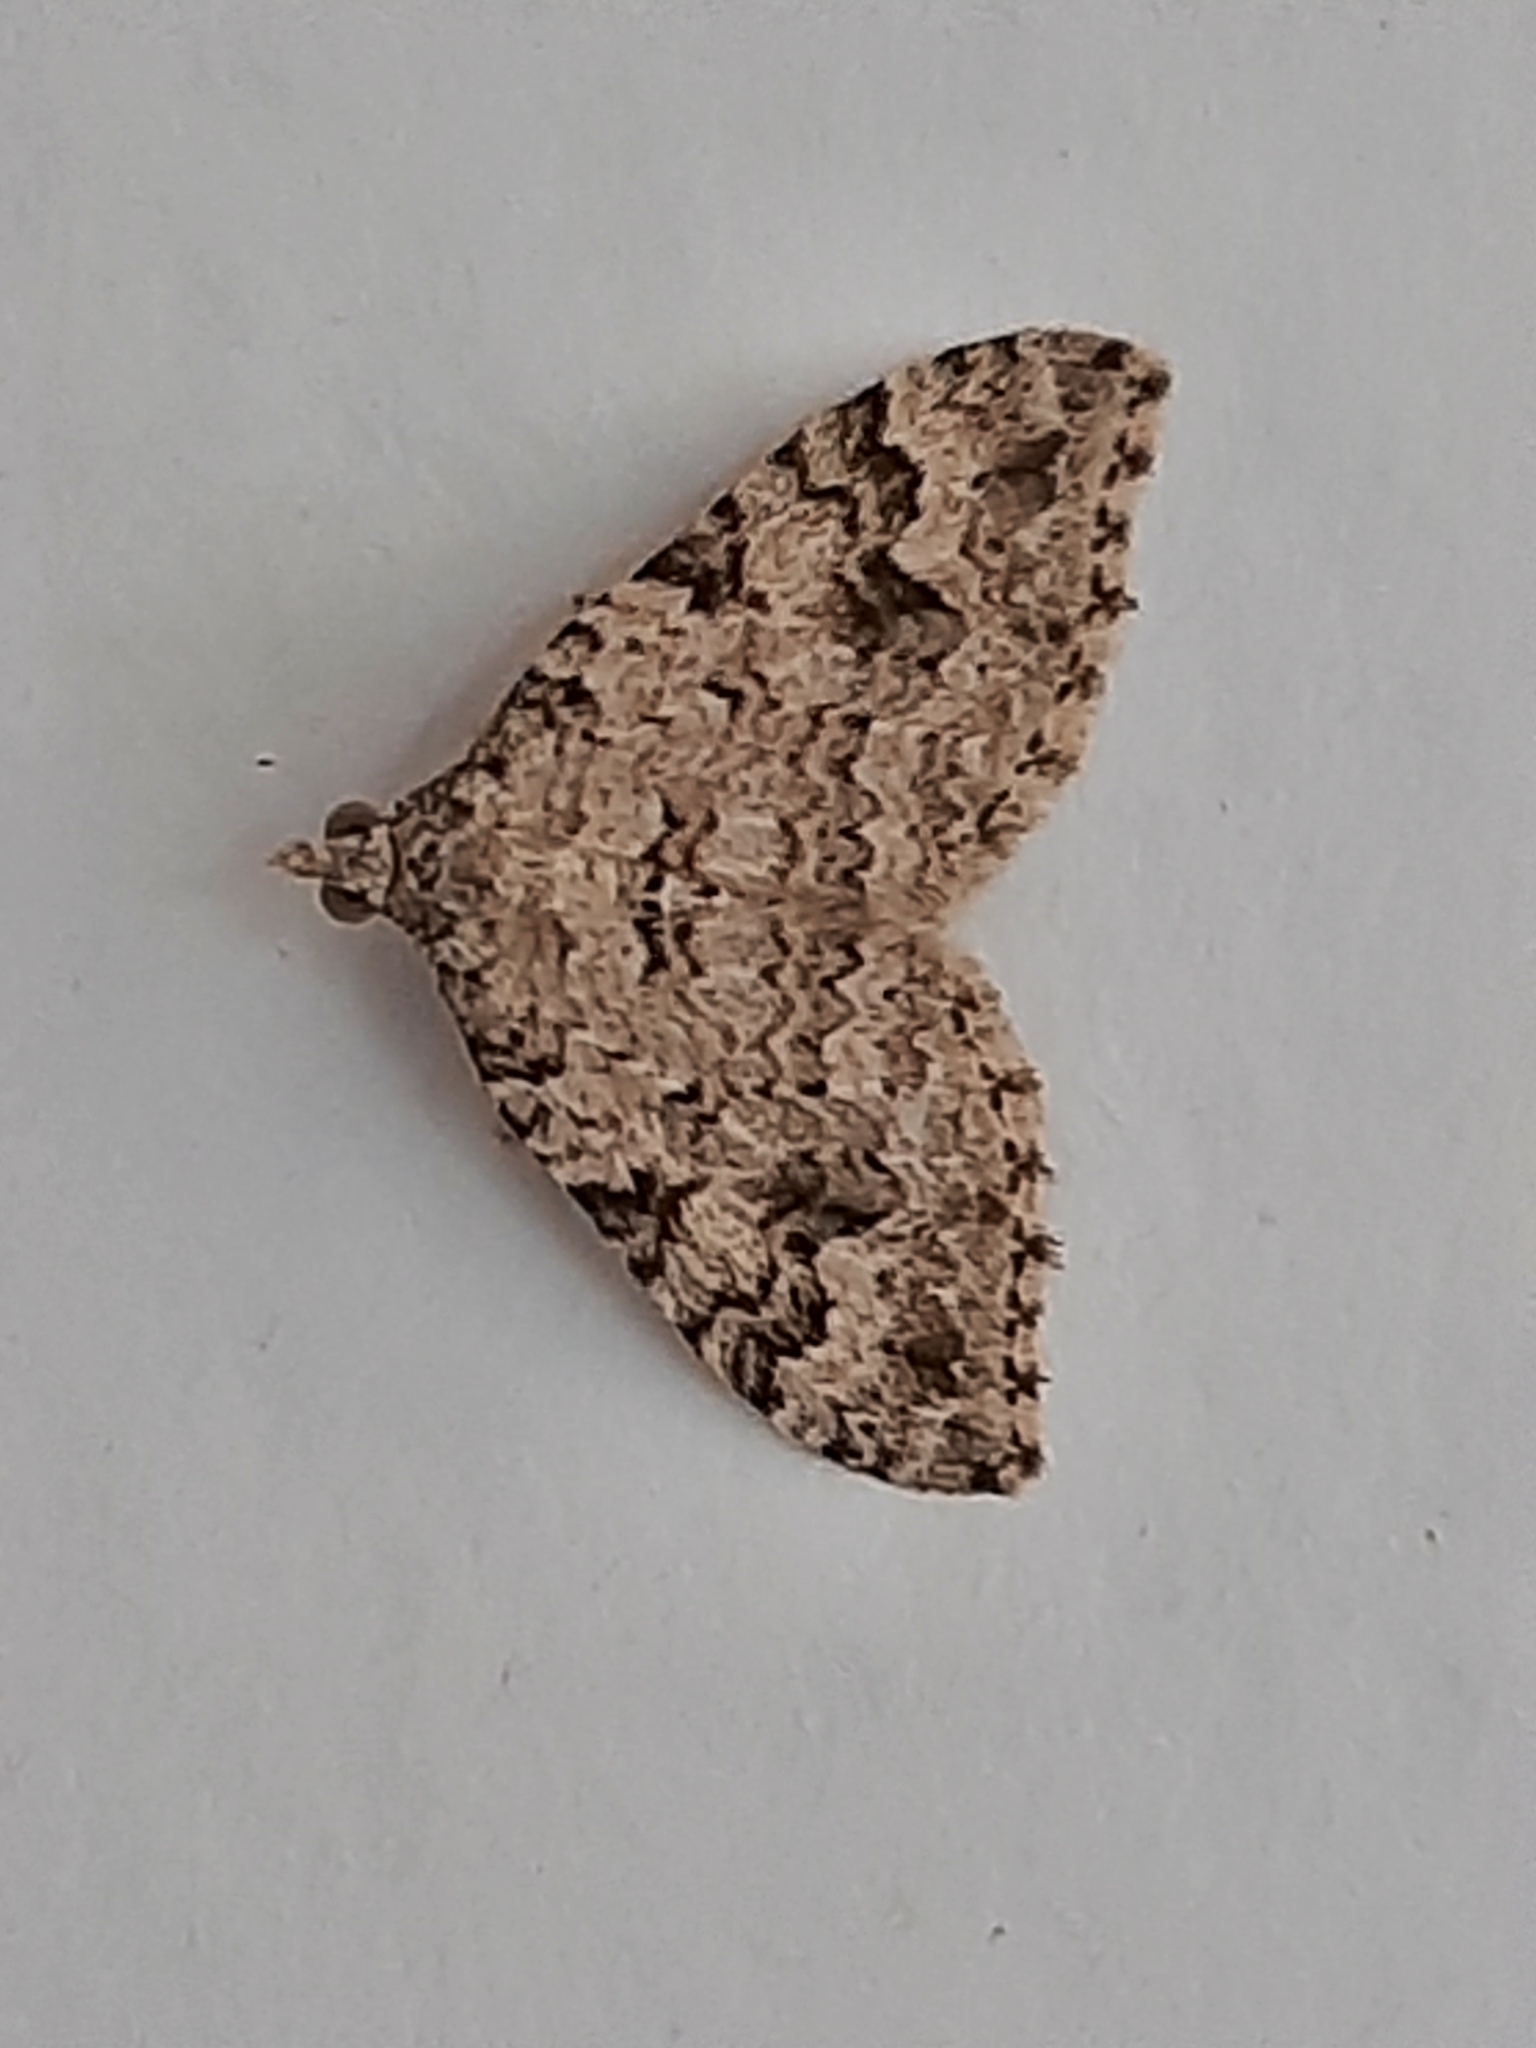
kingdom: Animalia
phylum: Arthropoda
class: Insecta
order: Lepidoptera
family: Geometridae
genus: Helastia
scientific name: Helastia cinerearia
